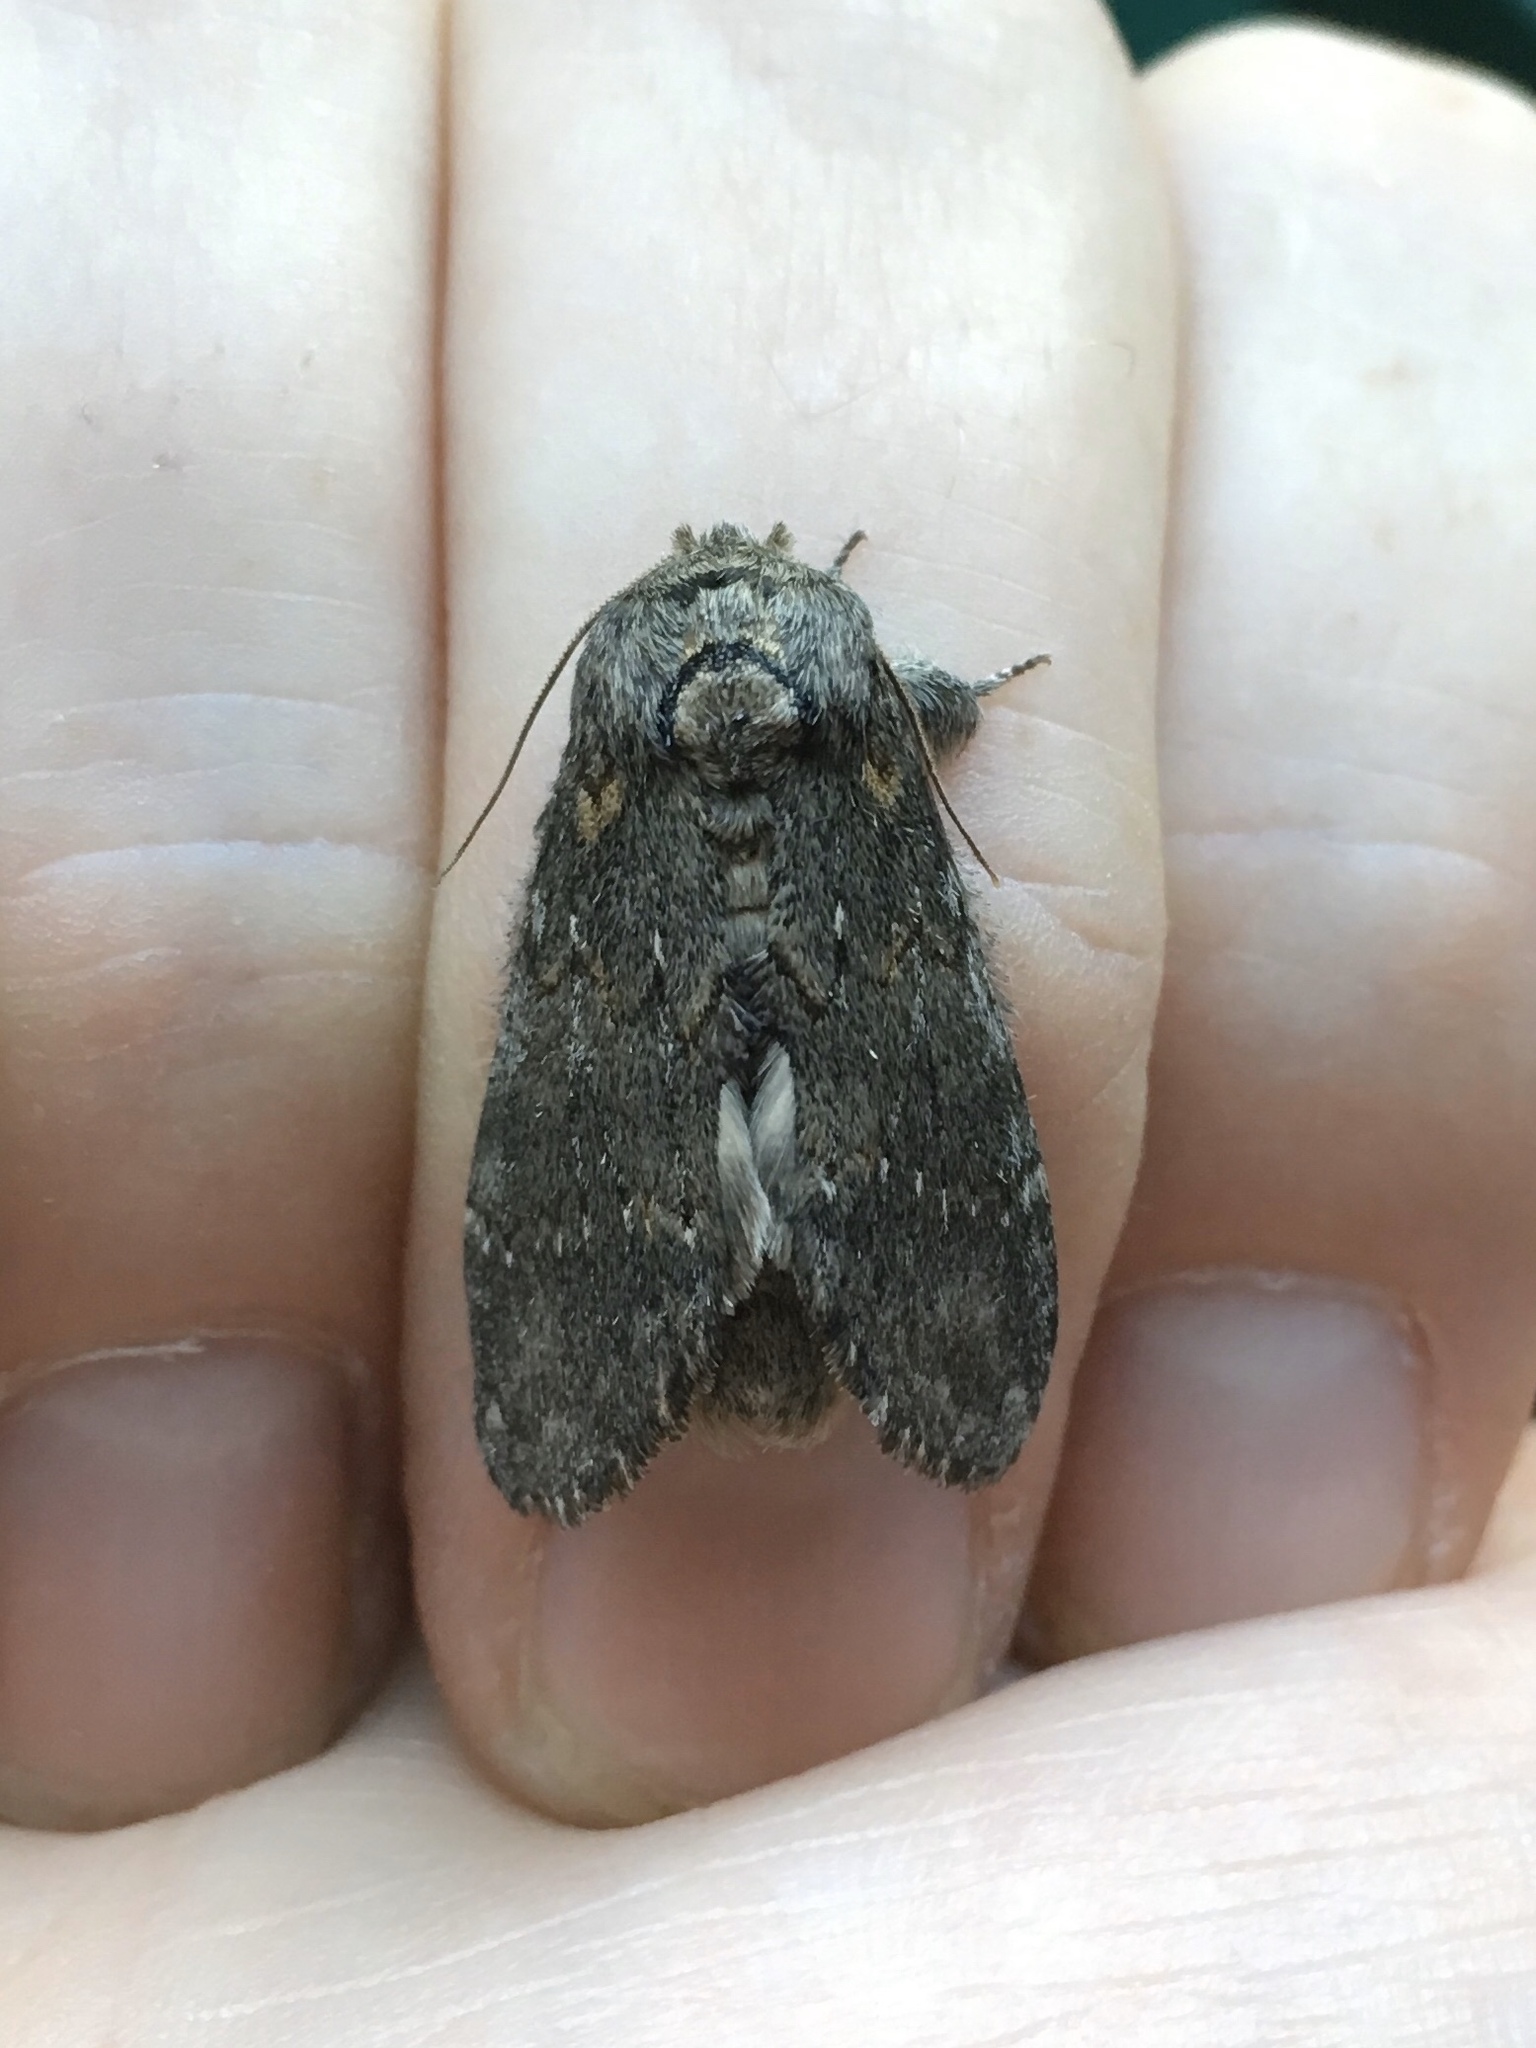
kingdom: Animalia
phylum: Arthropoda
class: Insecta
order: Lepidoptera
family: Notodontidae
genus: Peridea
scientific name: Peridea angulosa
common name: Angulose prominent
